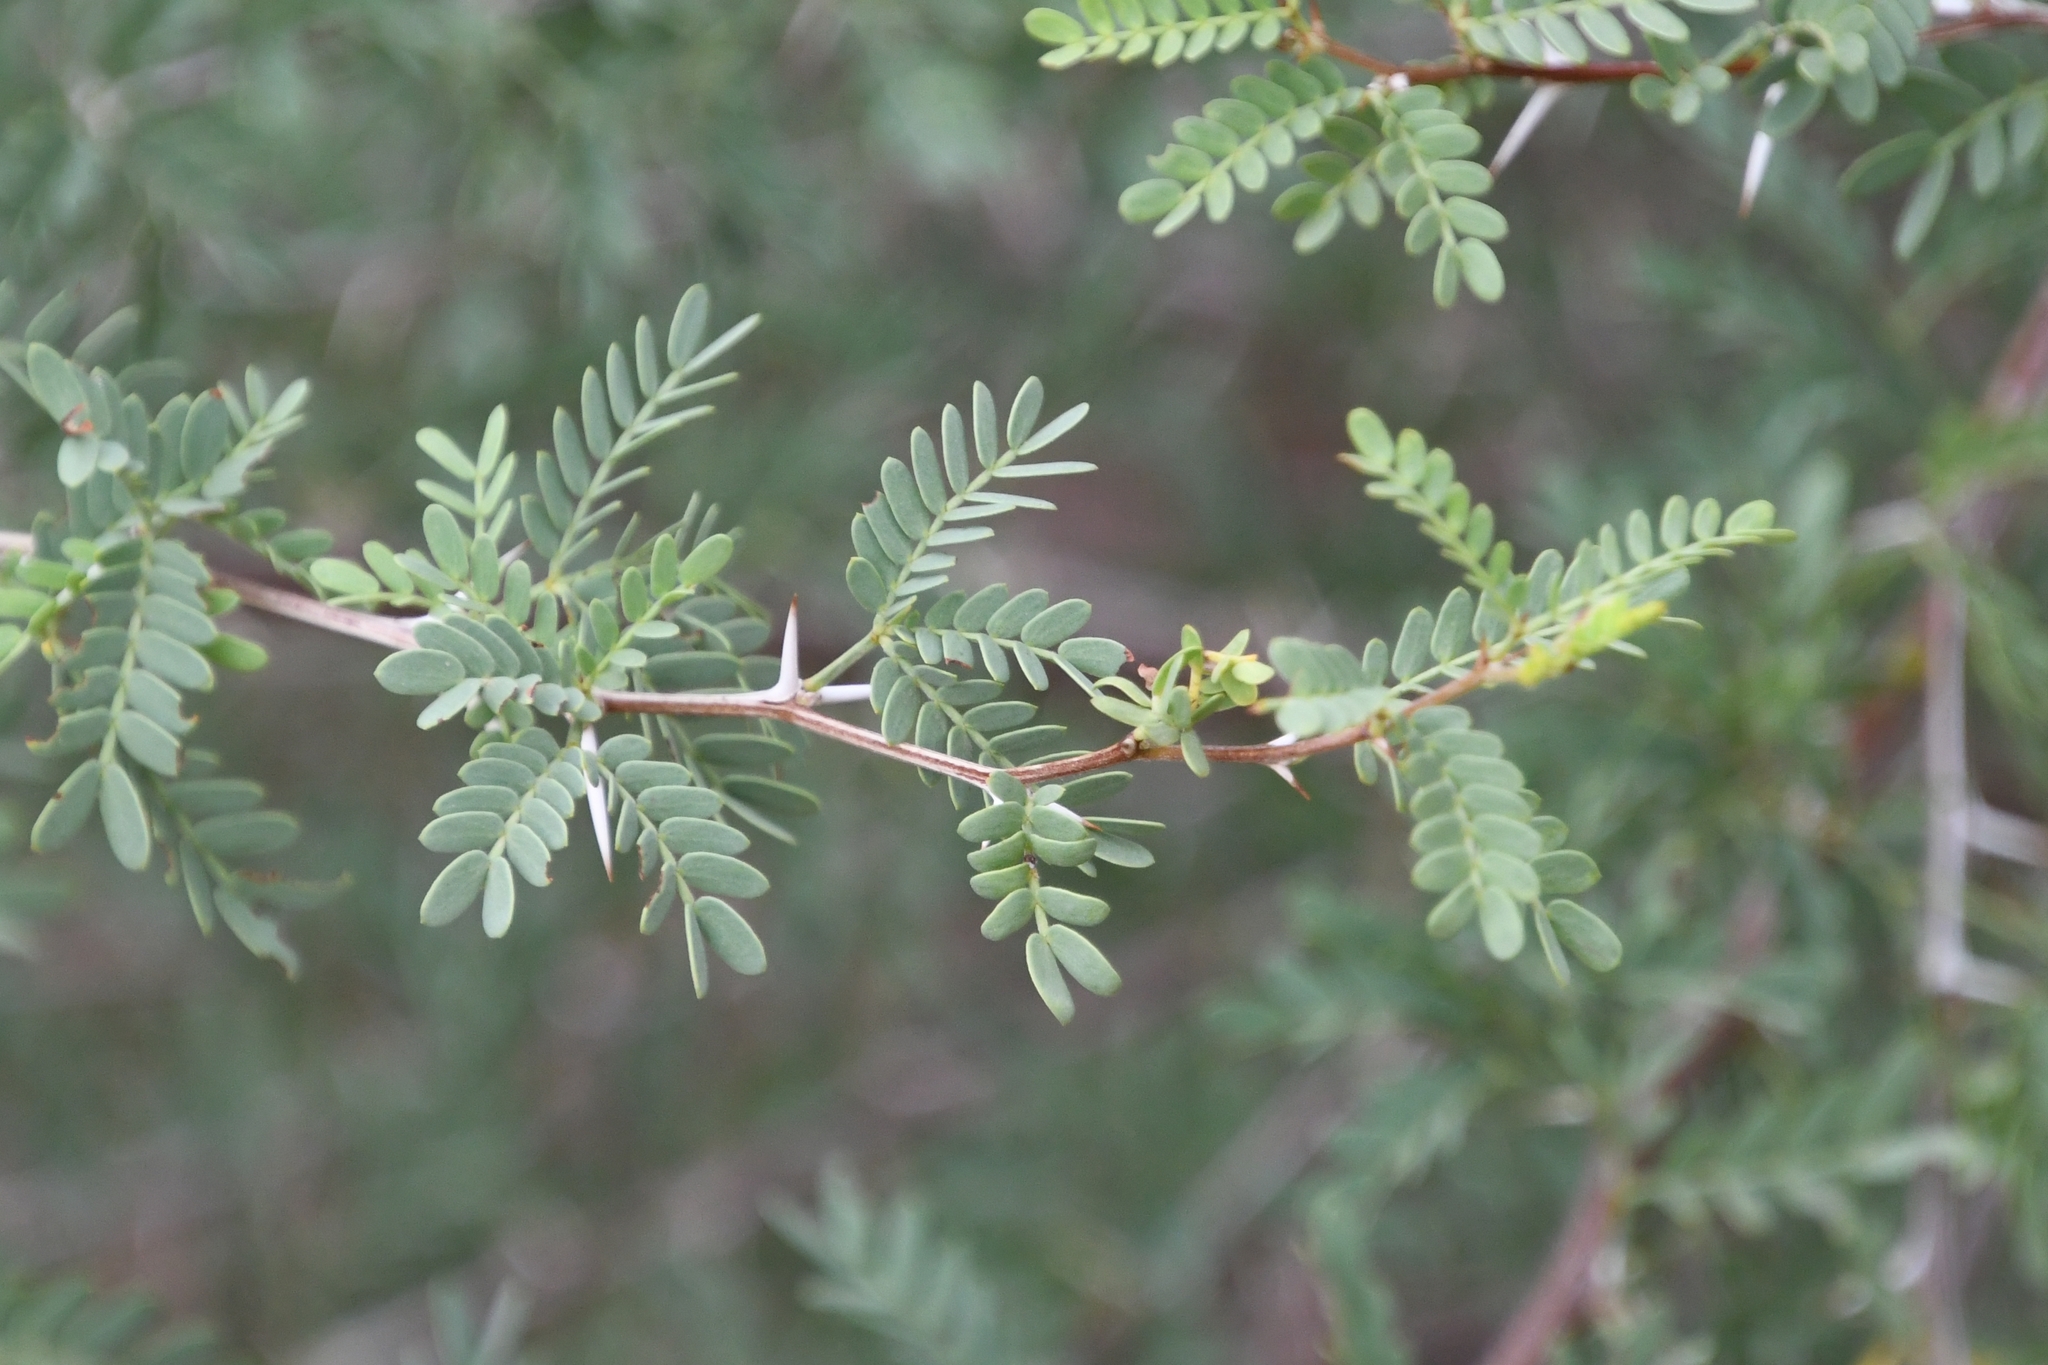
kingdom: Plantae
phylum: Tracheophyta
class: Magnoliopsida
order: Fabales
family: Fabaceae
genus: Prosopis
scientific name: Prosopis pubescens
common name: Screw-bean
